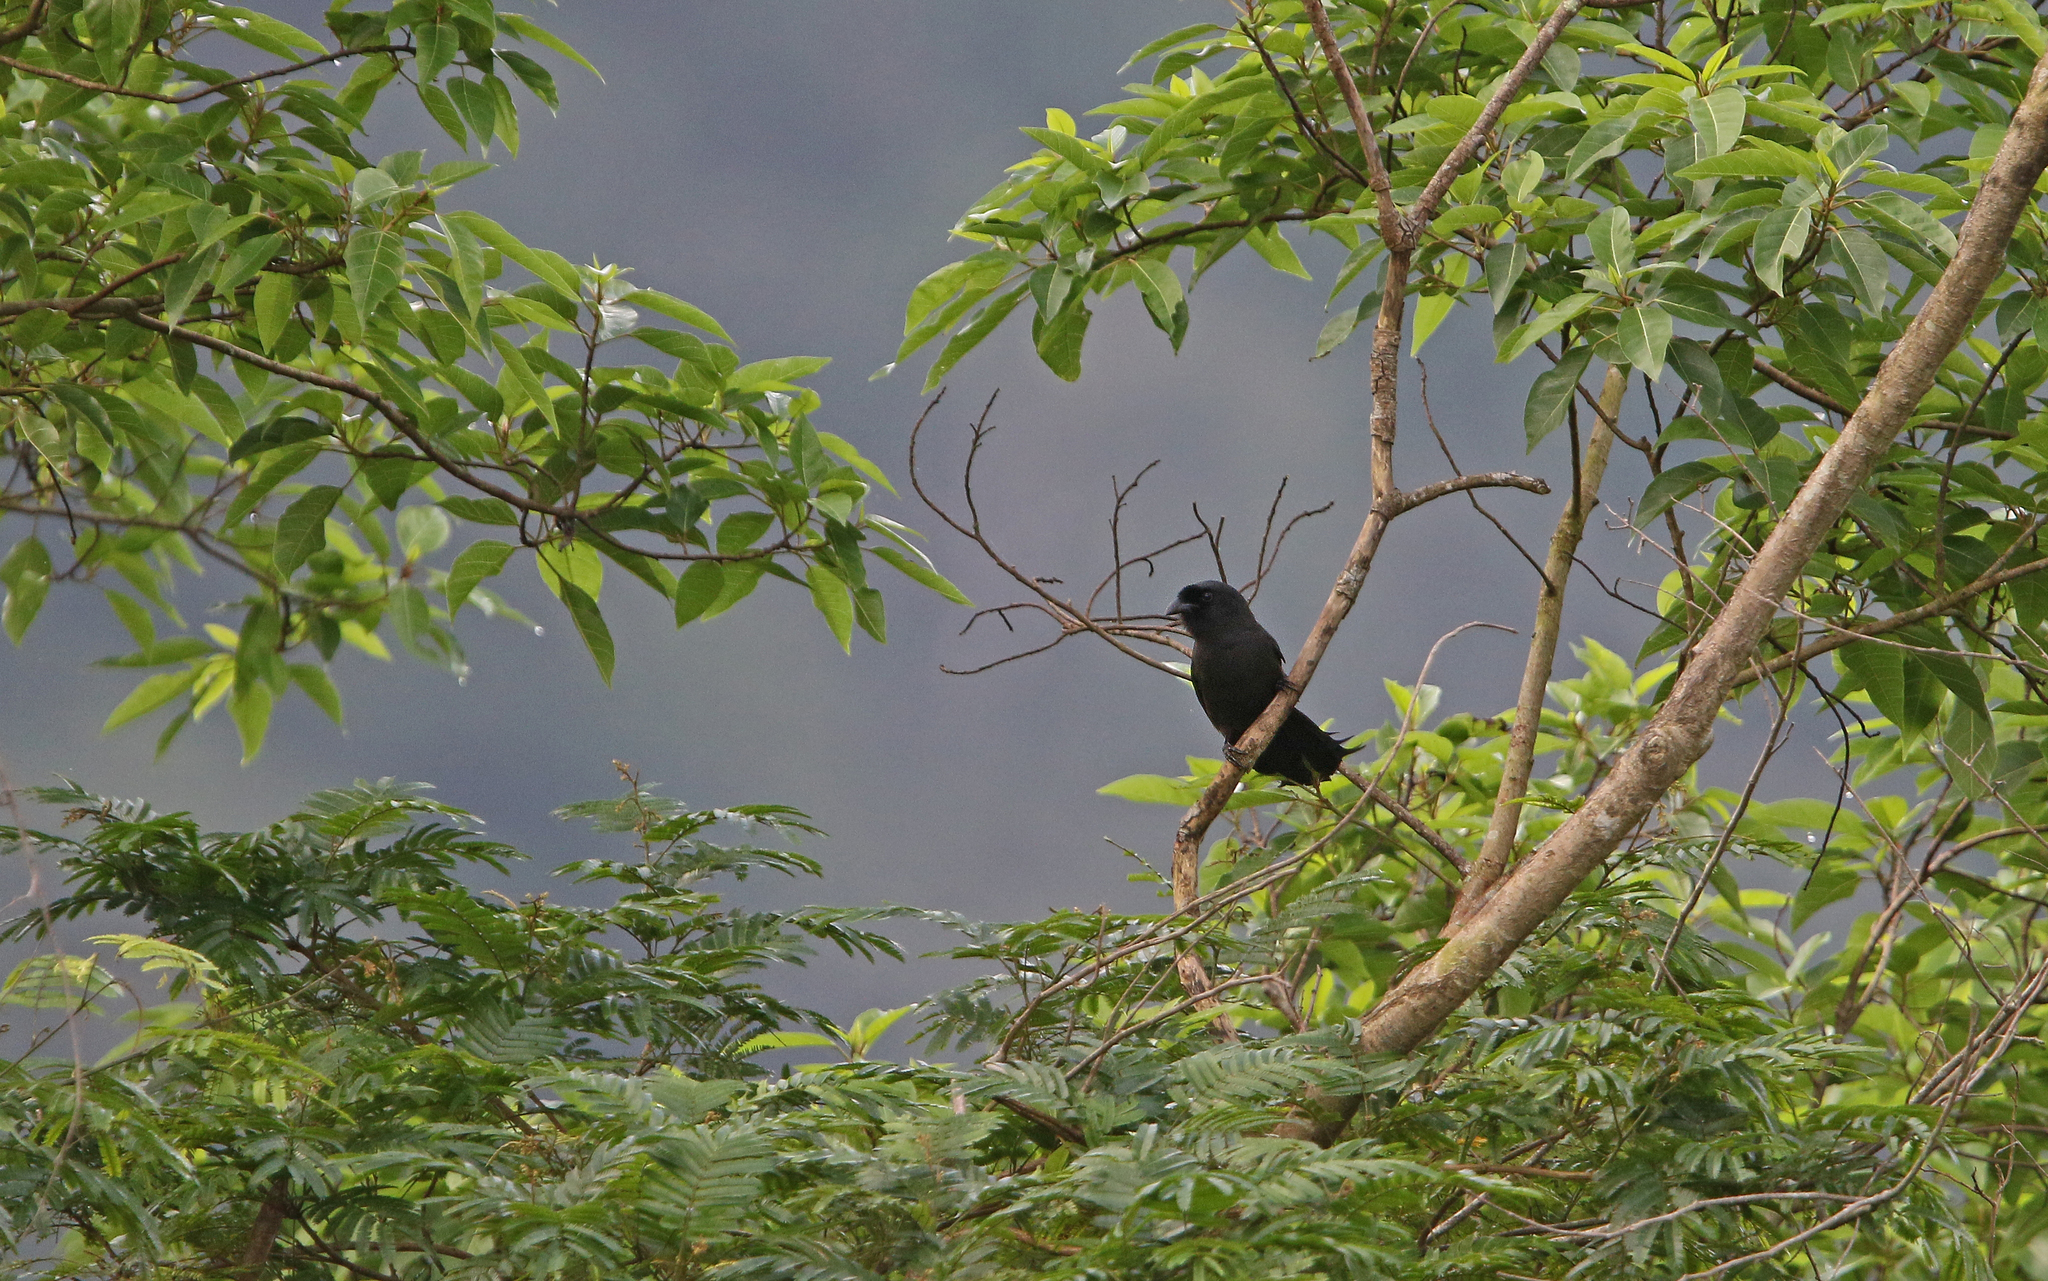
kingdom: Animalia
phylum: Chordata
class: Aves
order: Passeriformes
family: Corvidae
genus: Temnurus
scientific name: Temnurus temnurus
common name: Ratchet-tailed treepie
